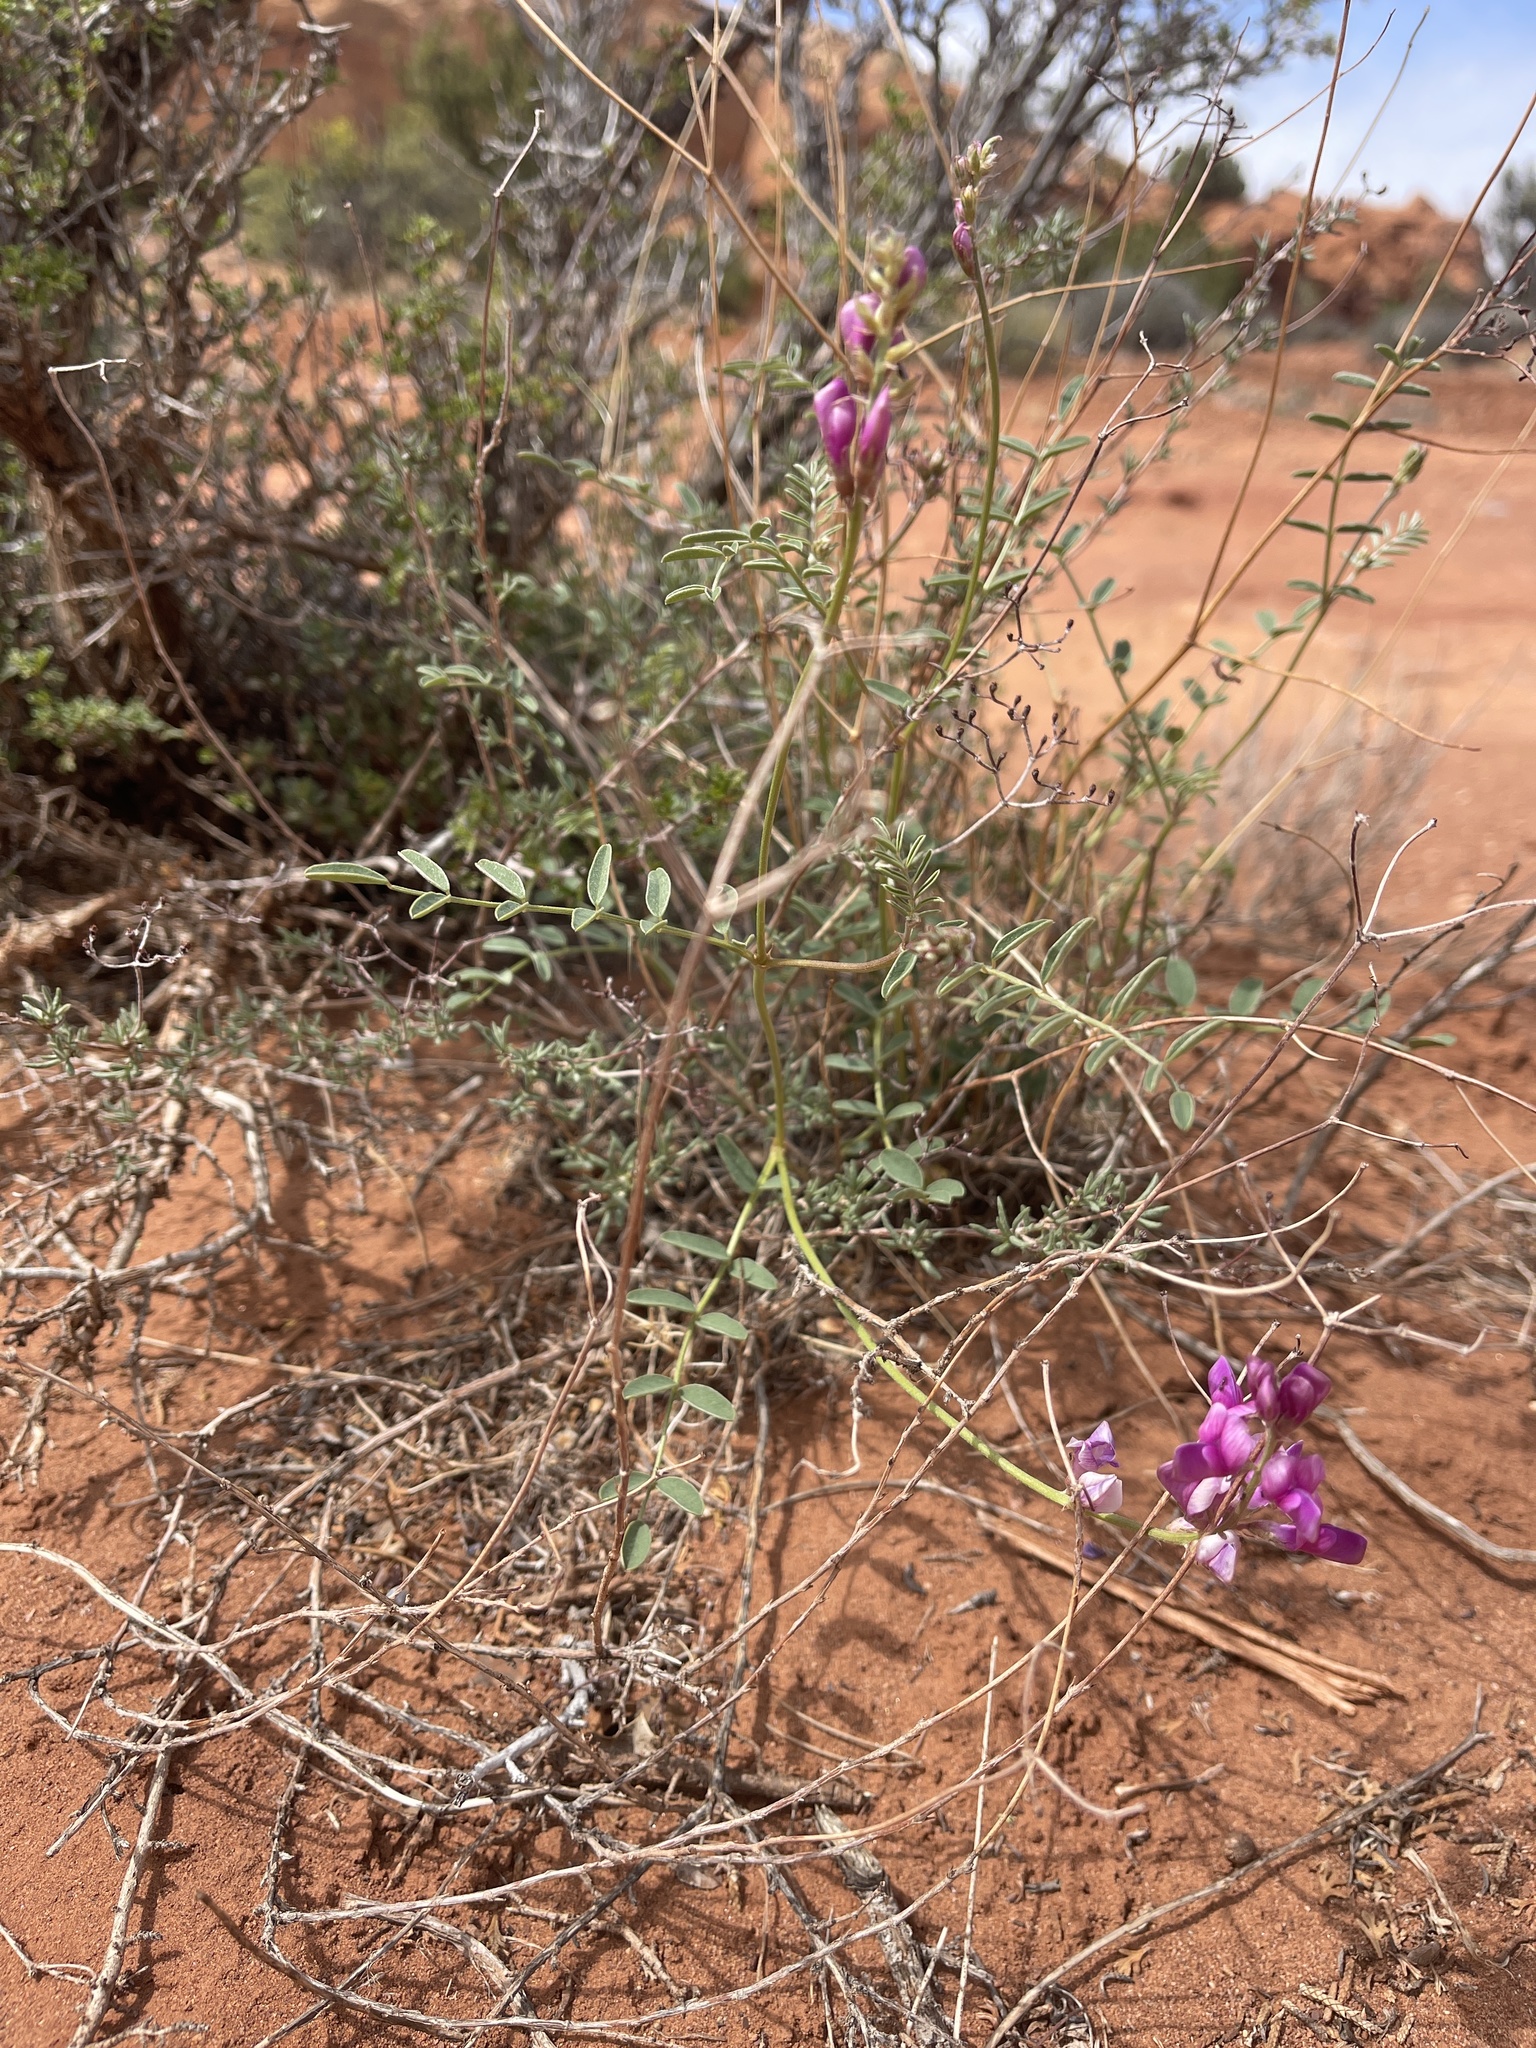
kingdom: Plantae
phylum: Tracheophyta
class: Magnoliopsida
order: Fabales
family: Fabaceae
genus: Hedysarum
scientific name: Hedysarum boreale
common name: Northern sweet-vetch
